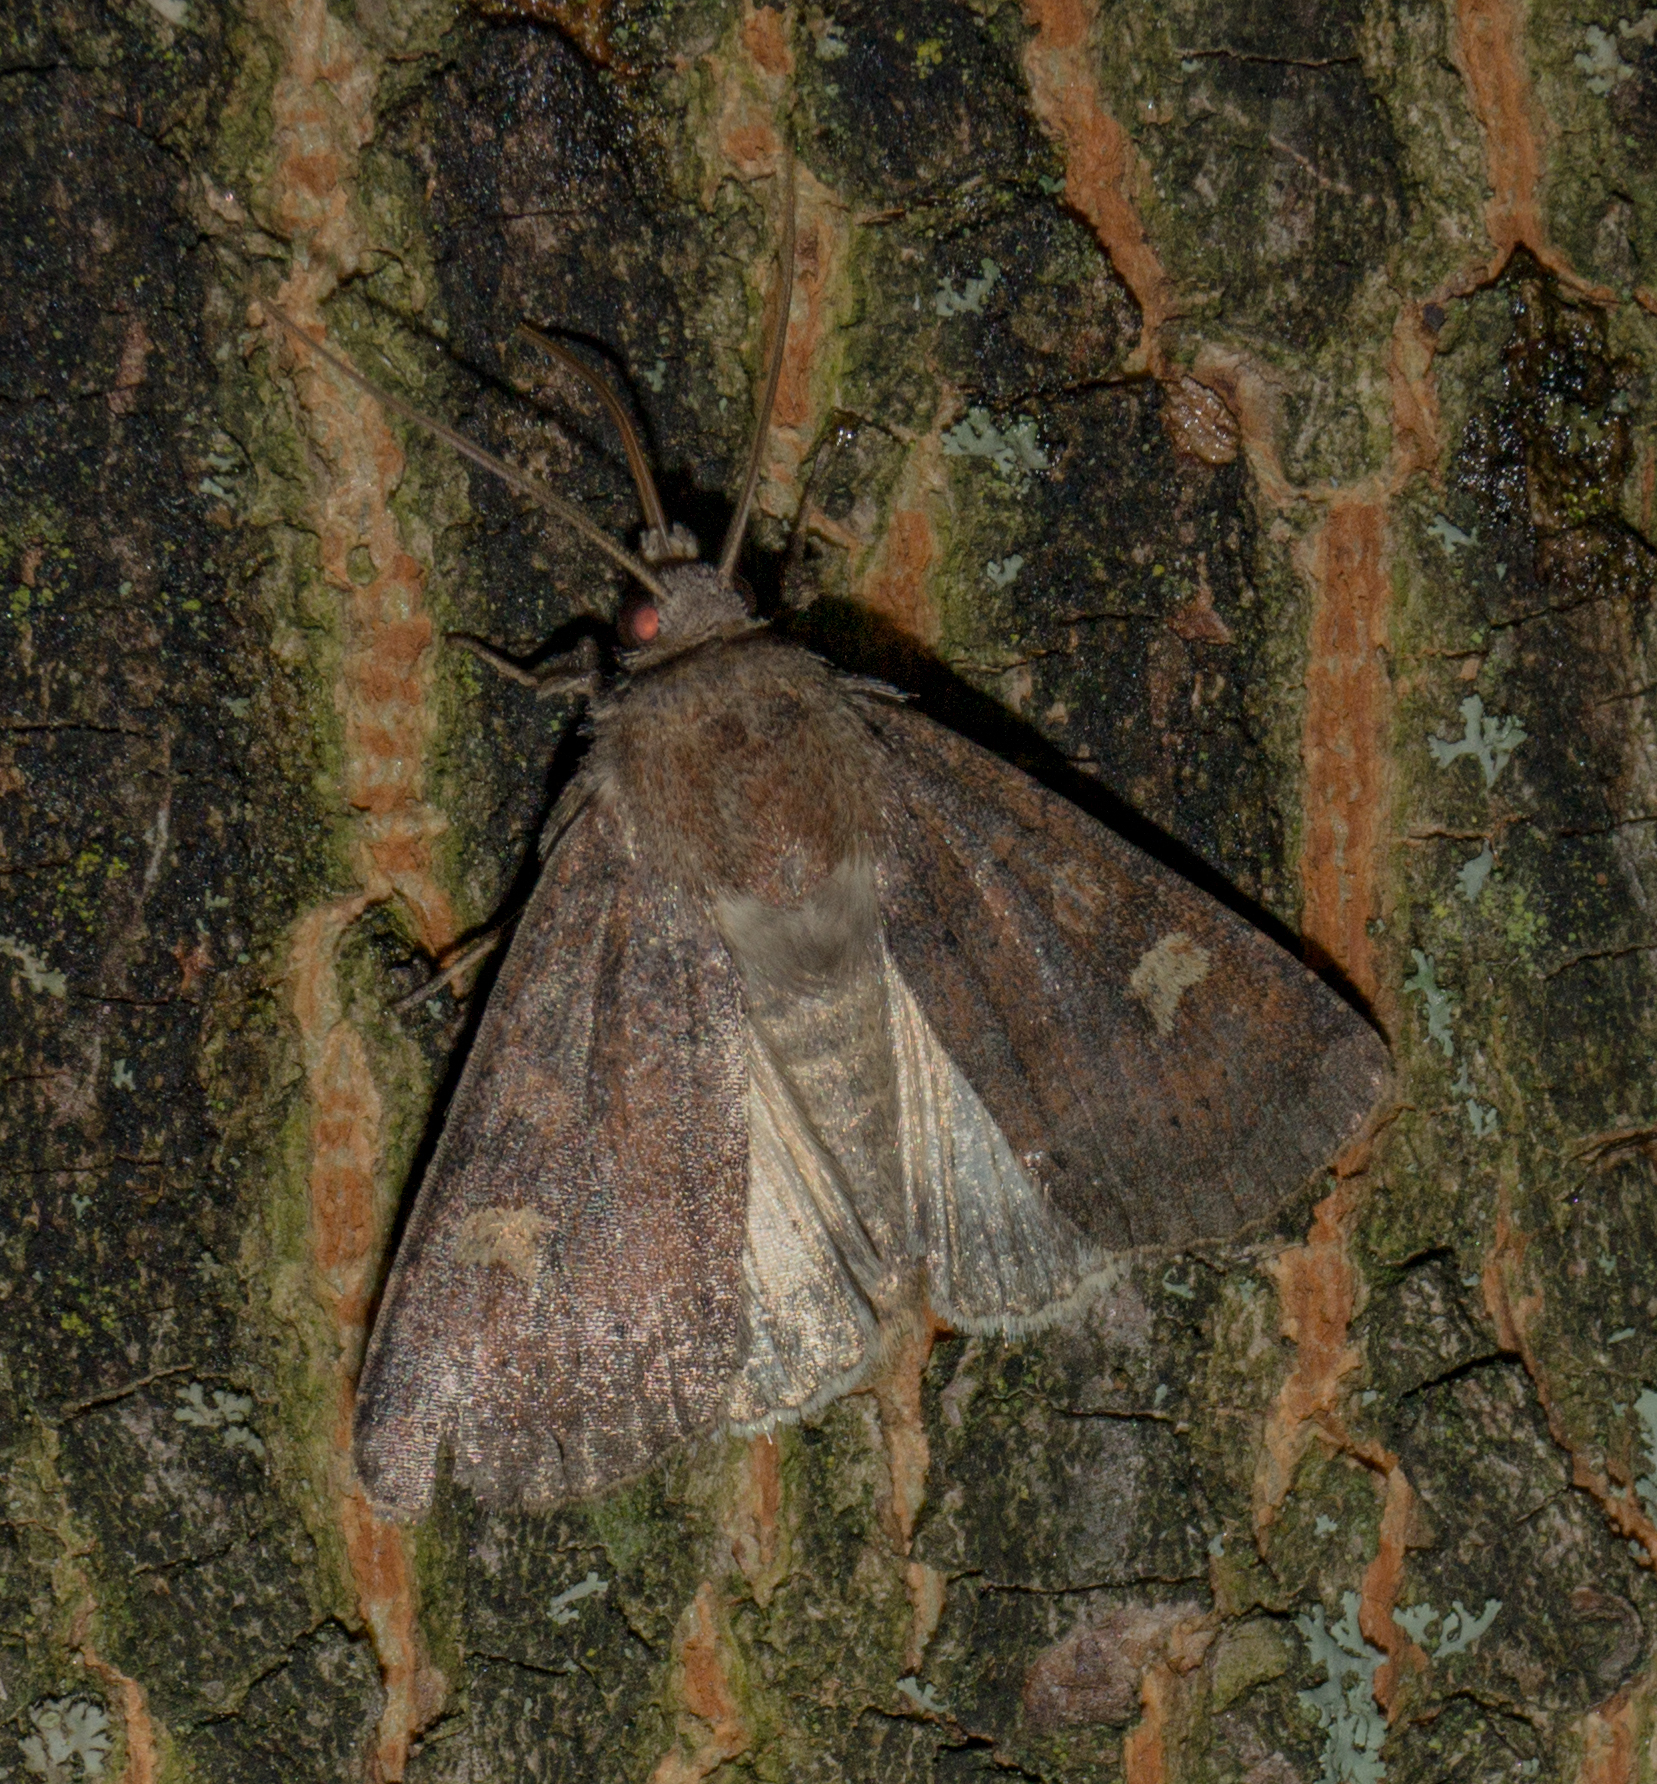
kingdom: Animalia
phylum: Arthropoda
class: Insecta
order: Lepidoptera
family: Noctuidae
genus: Xestia
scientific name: Xestia xanthographa
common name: Square-spot rustic
